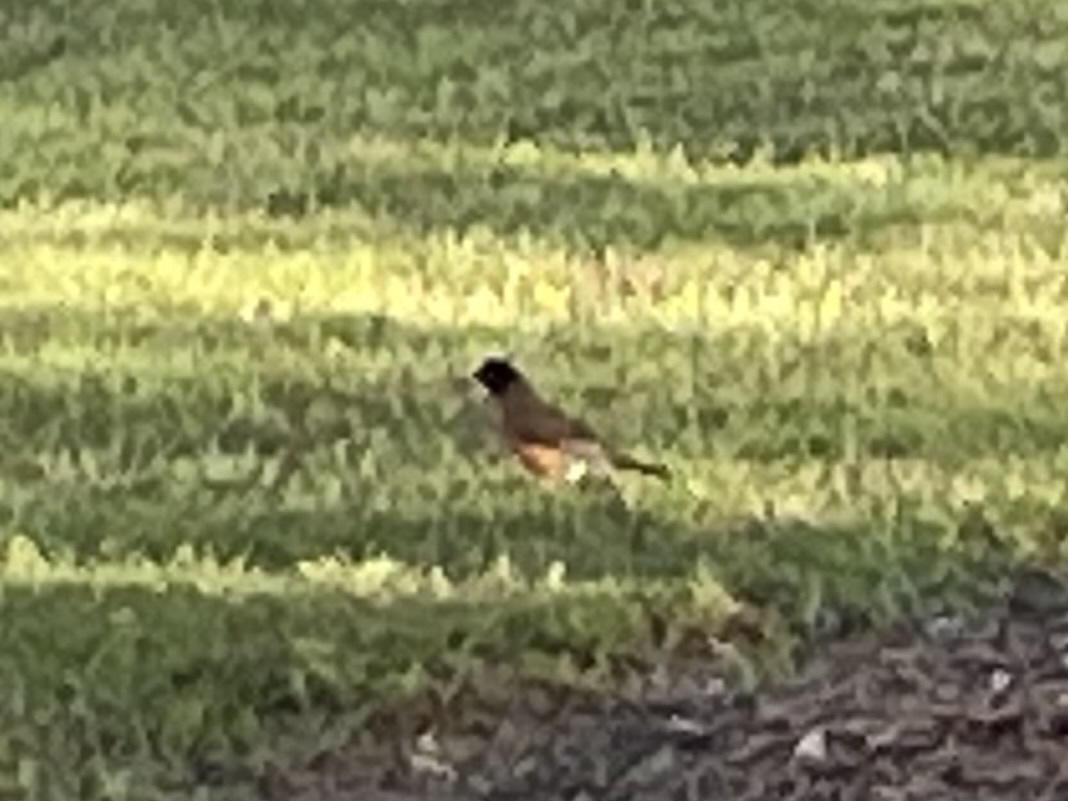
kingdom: Animalia
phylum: Chordata
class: Aves
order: Passeriformes
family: Turdidae
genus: Turdus
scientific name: Turdus migratorius
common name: American robin
